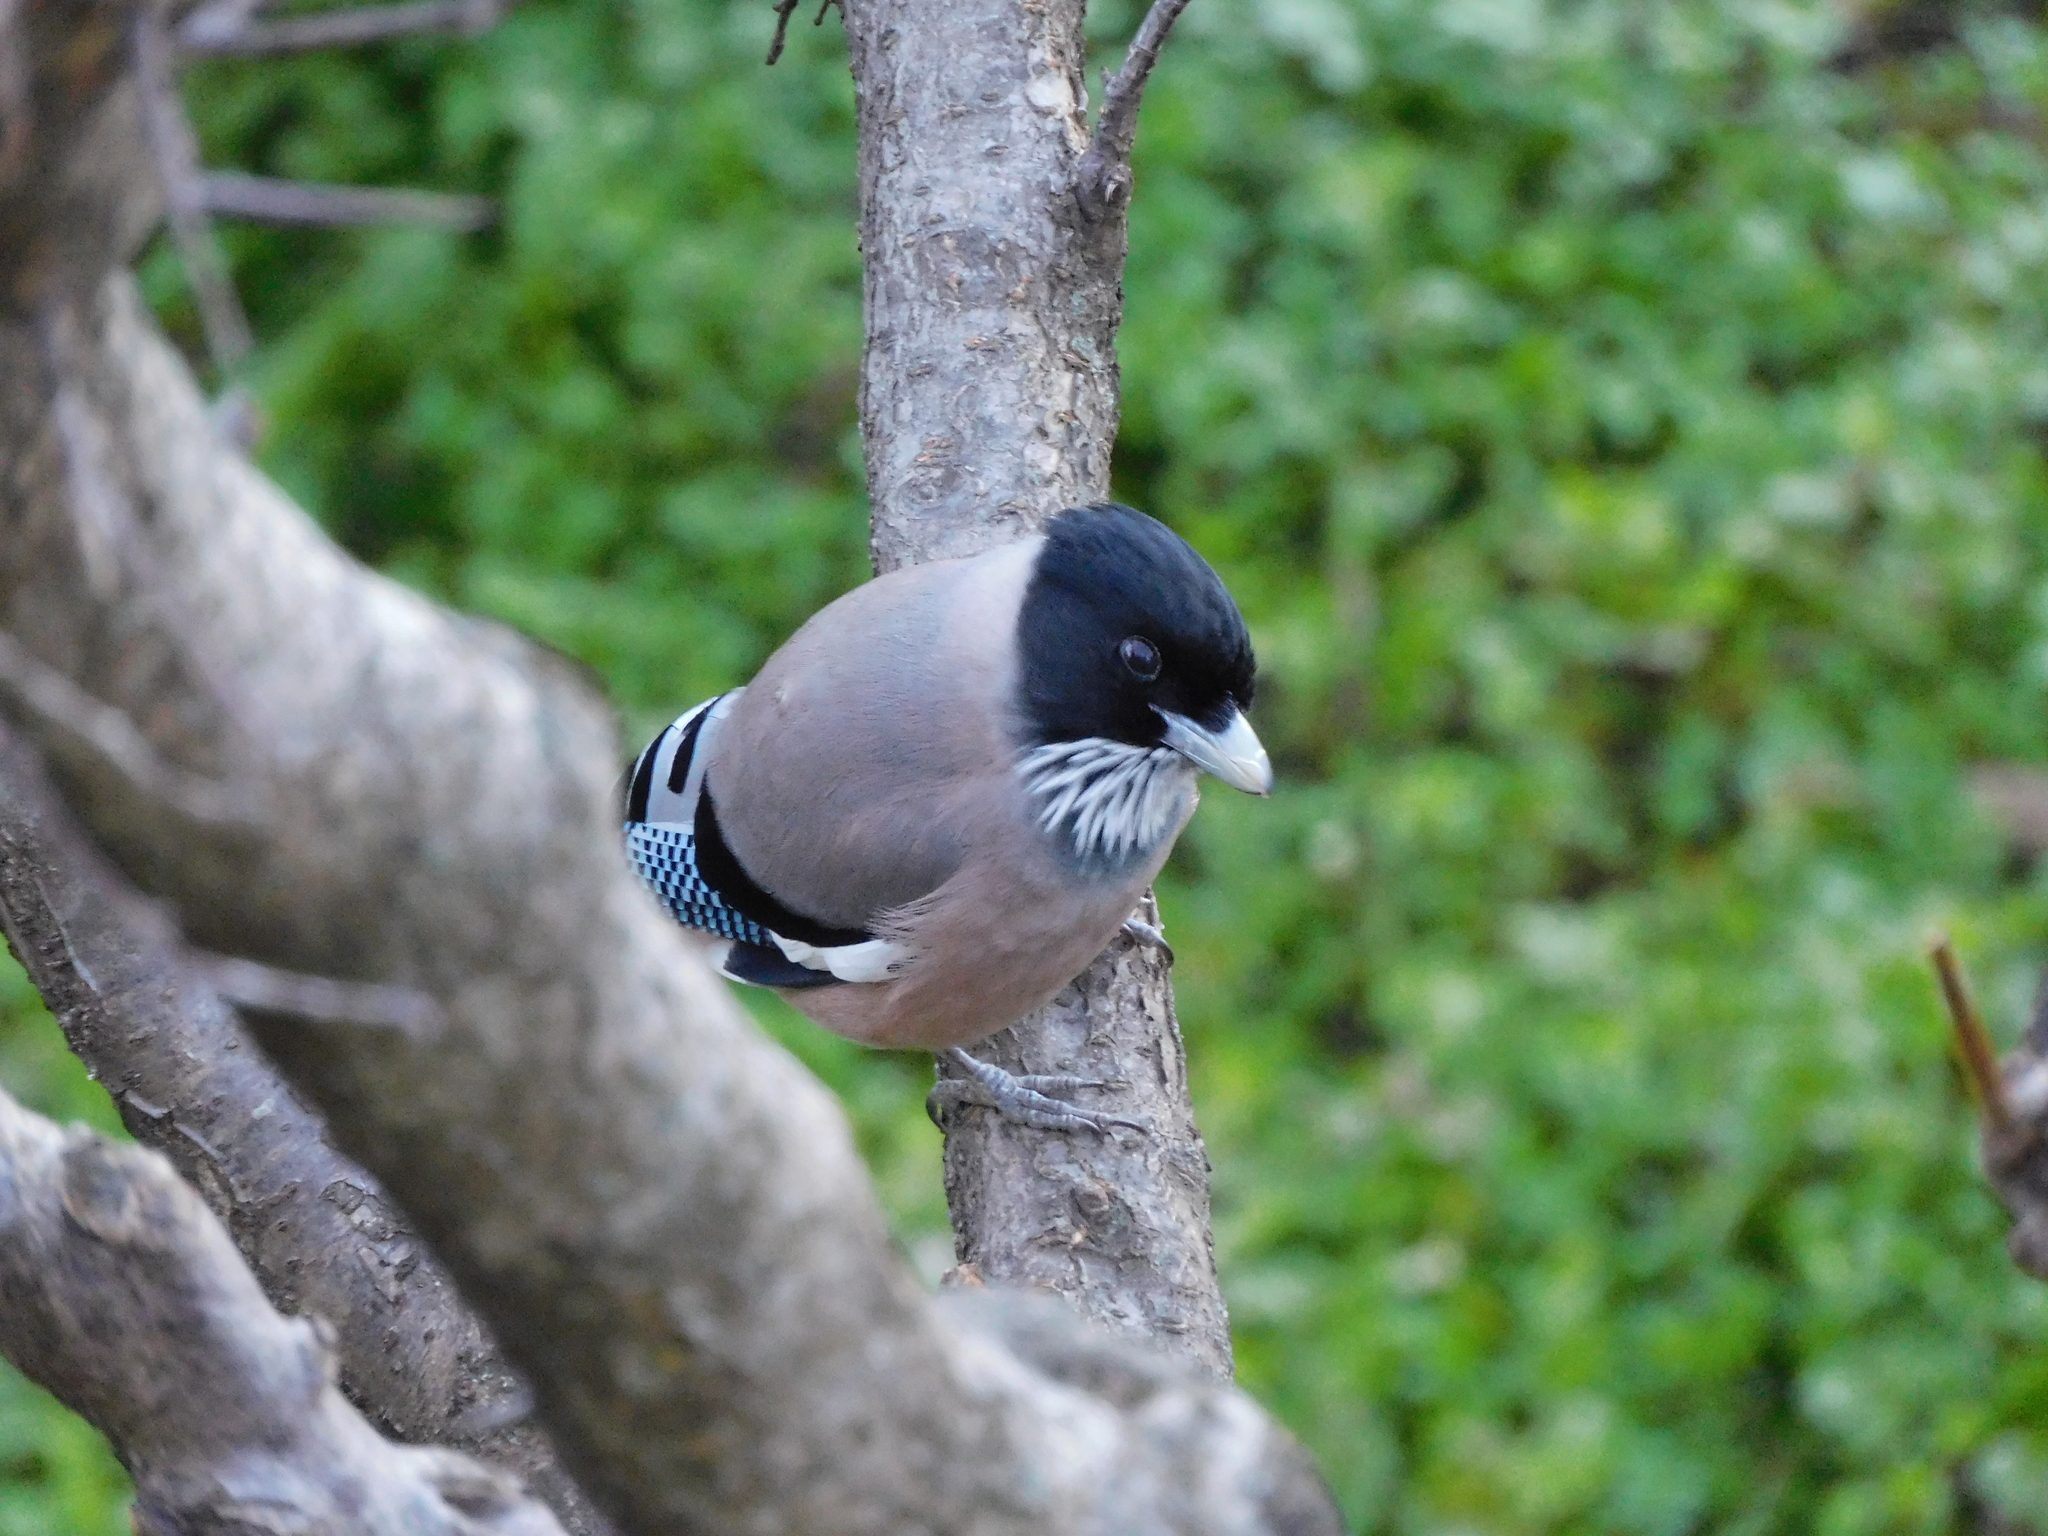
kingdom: Animalia
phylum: Chordata
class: Aves
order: Passeriformes
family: Corvidae
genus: Garrulus
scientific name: Garrulus lanceolatus
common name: Black-headed jay
